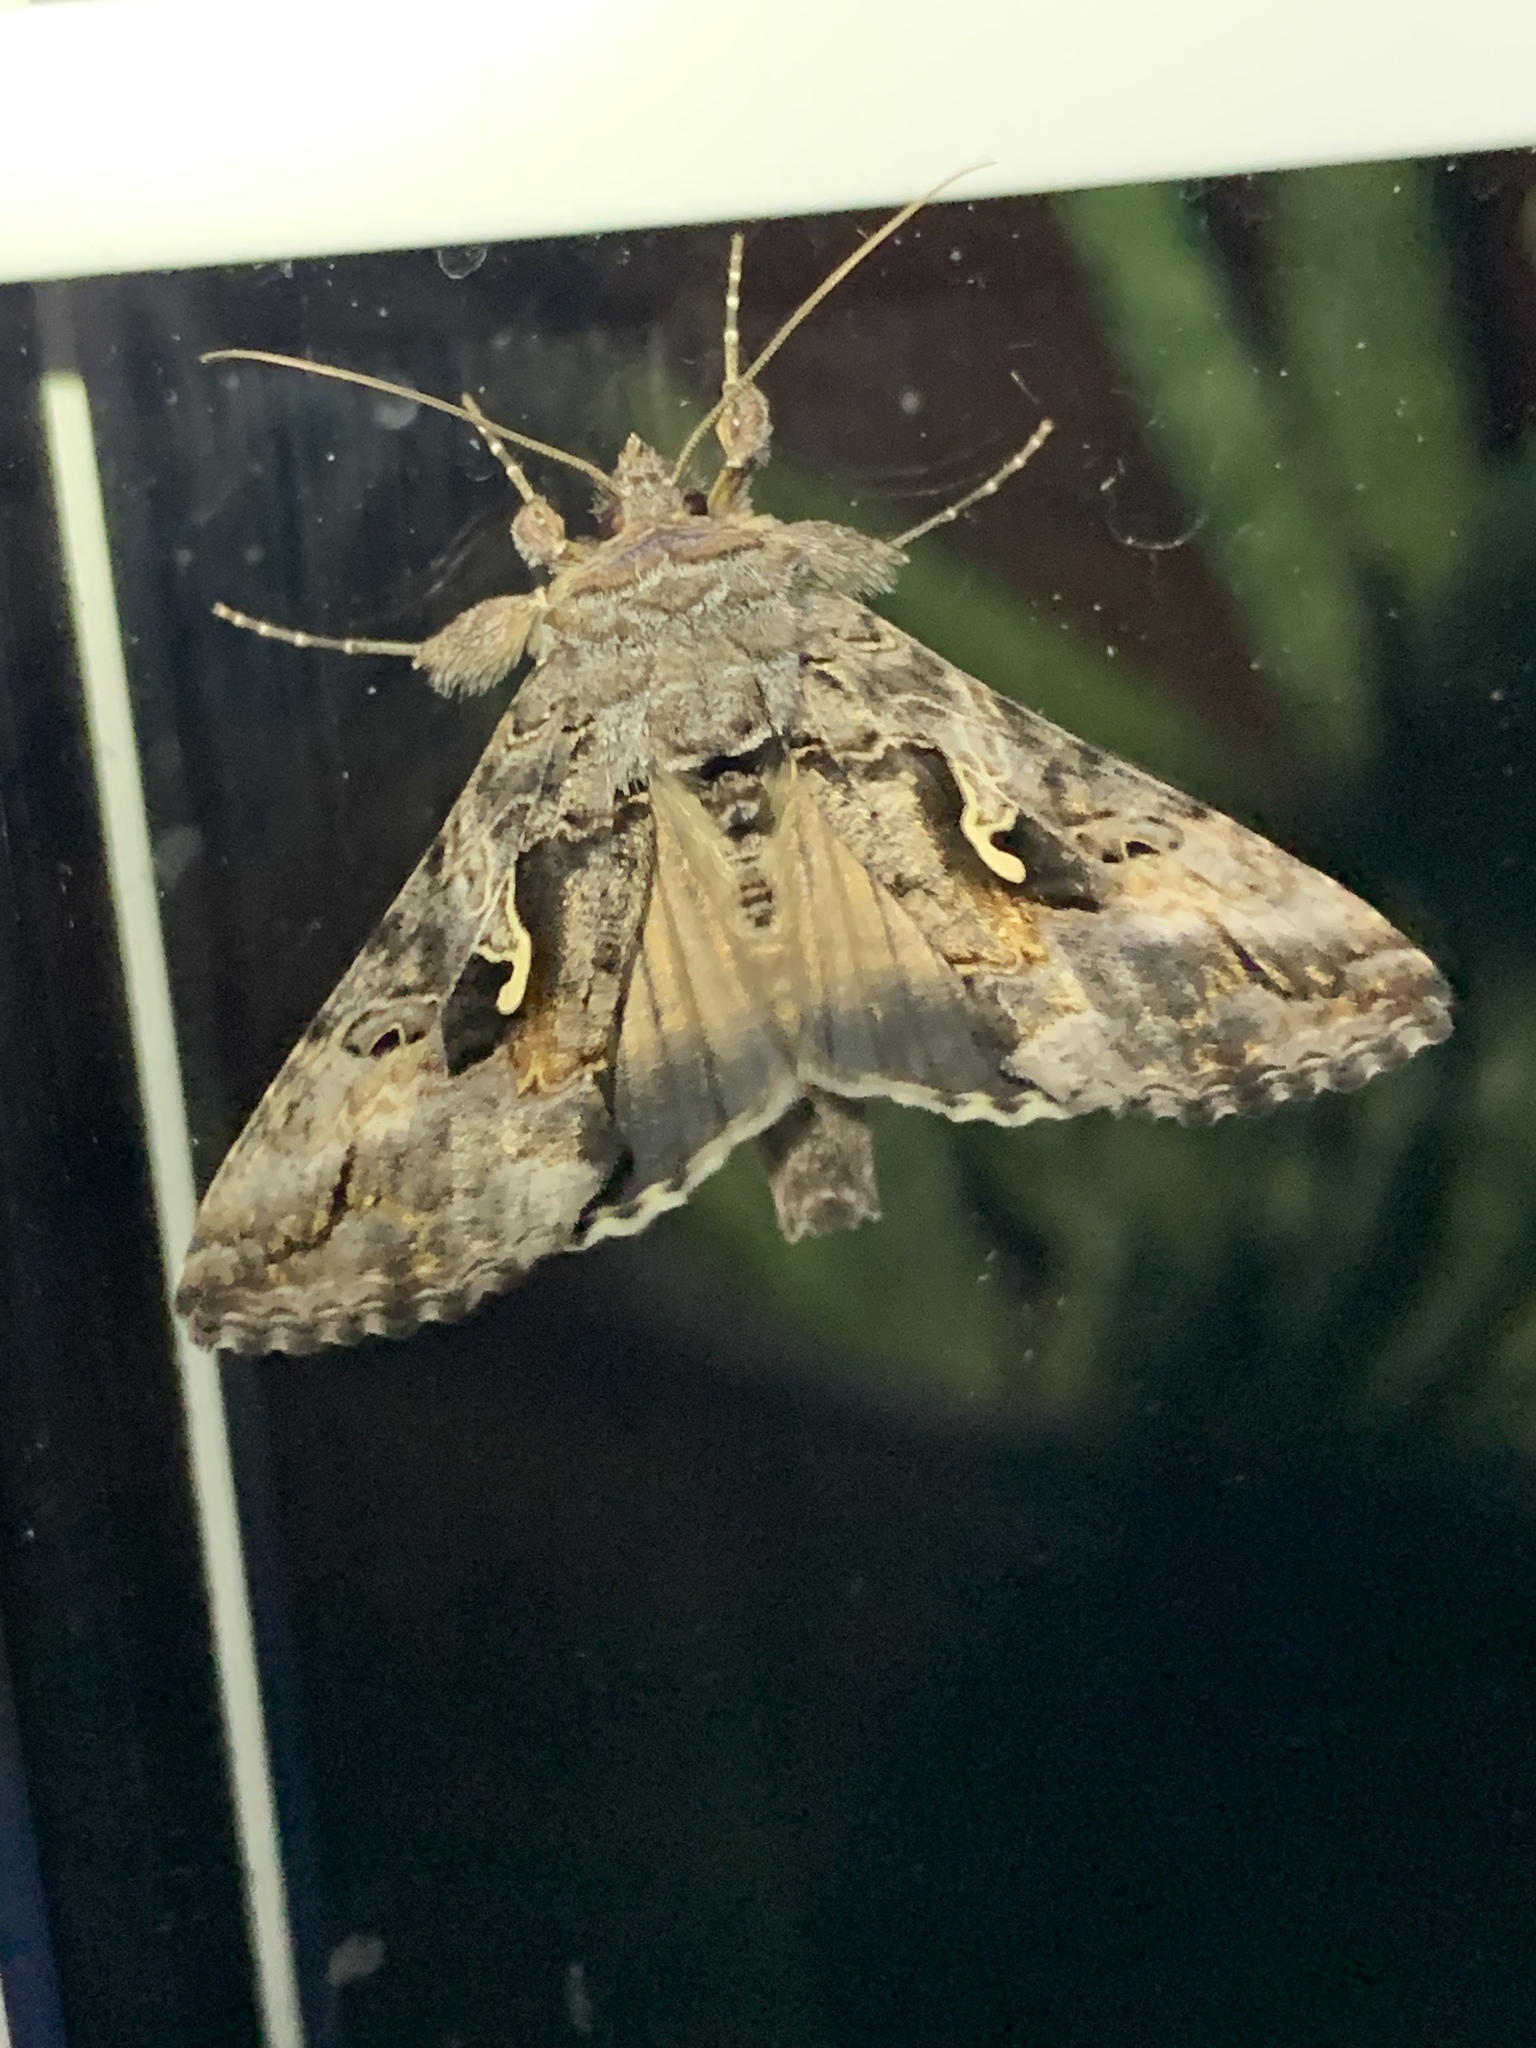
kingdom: Animalia
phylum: Arthropoda
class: Insecta
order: Lepidoptera
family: Noctuidae
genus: Autographa
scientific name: Autographa californica
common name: Alfalfa looper
